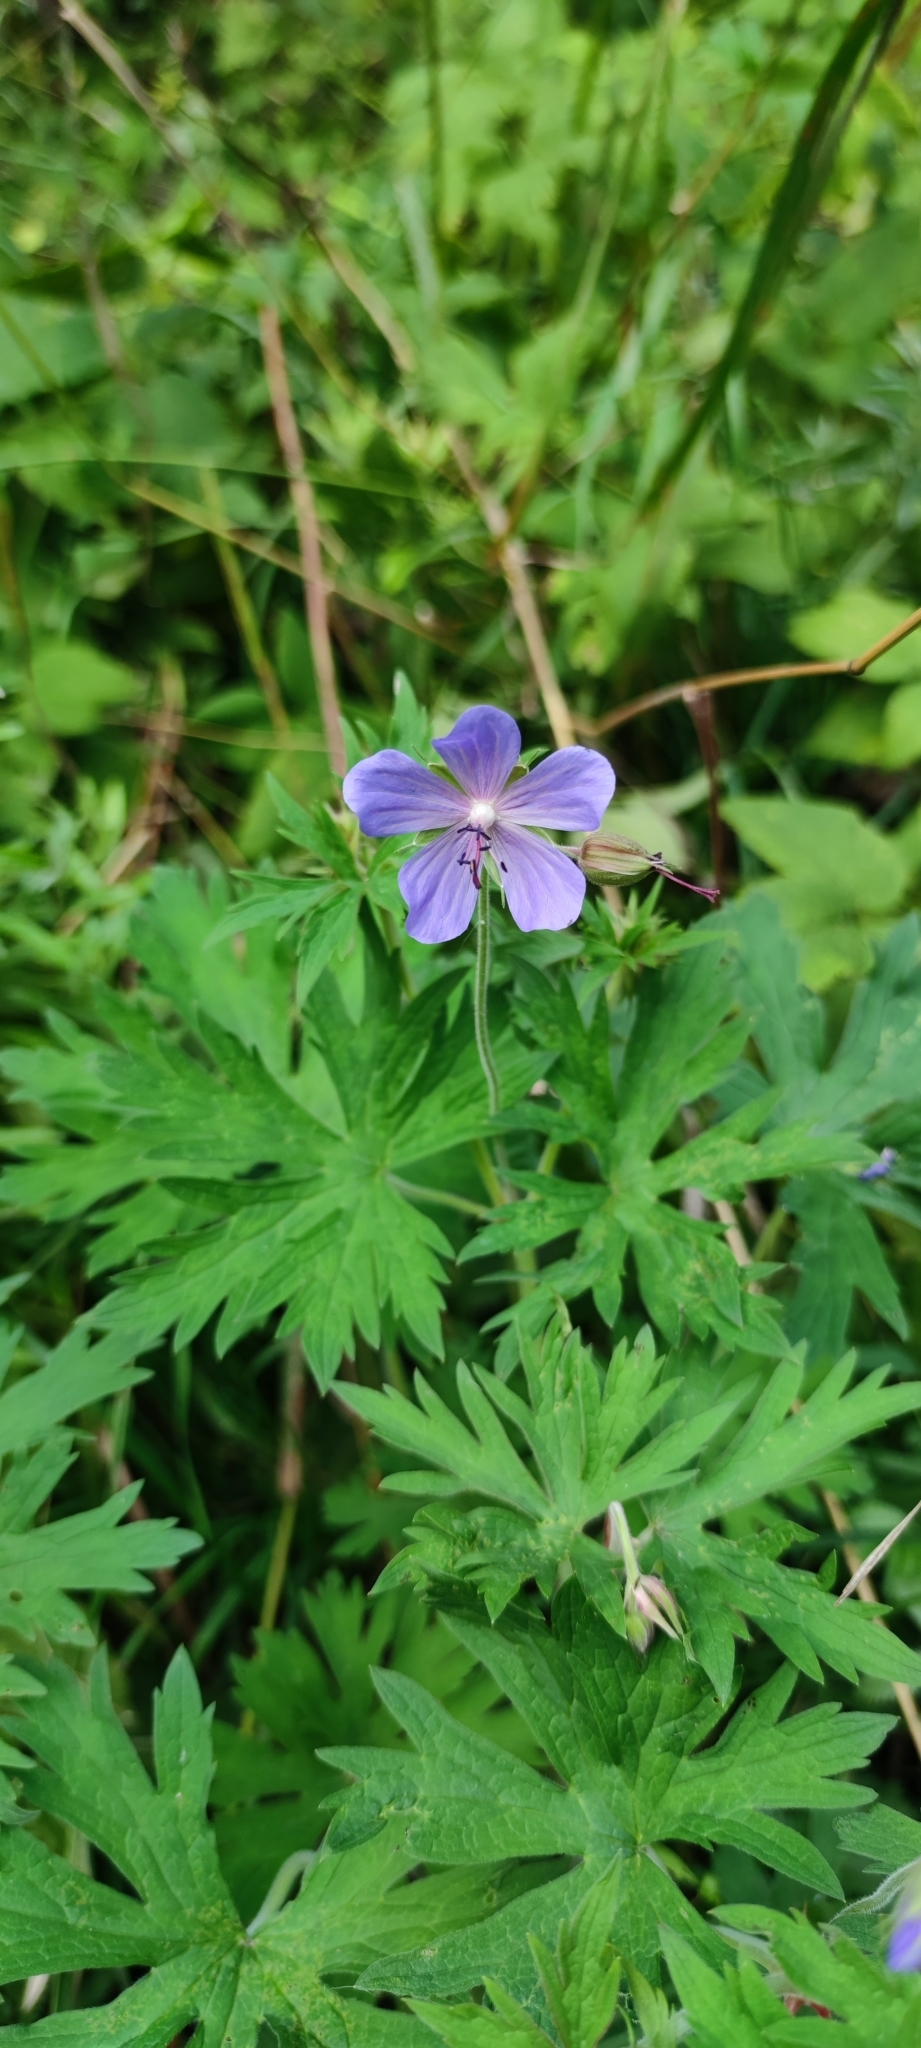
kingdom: Plantae
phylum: Tracheophyta
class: Magnoliopsida
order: Geraniales
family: Geraniaceae
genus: Geranium
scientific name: Geranium pratense
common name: Meadow crane's-bill
